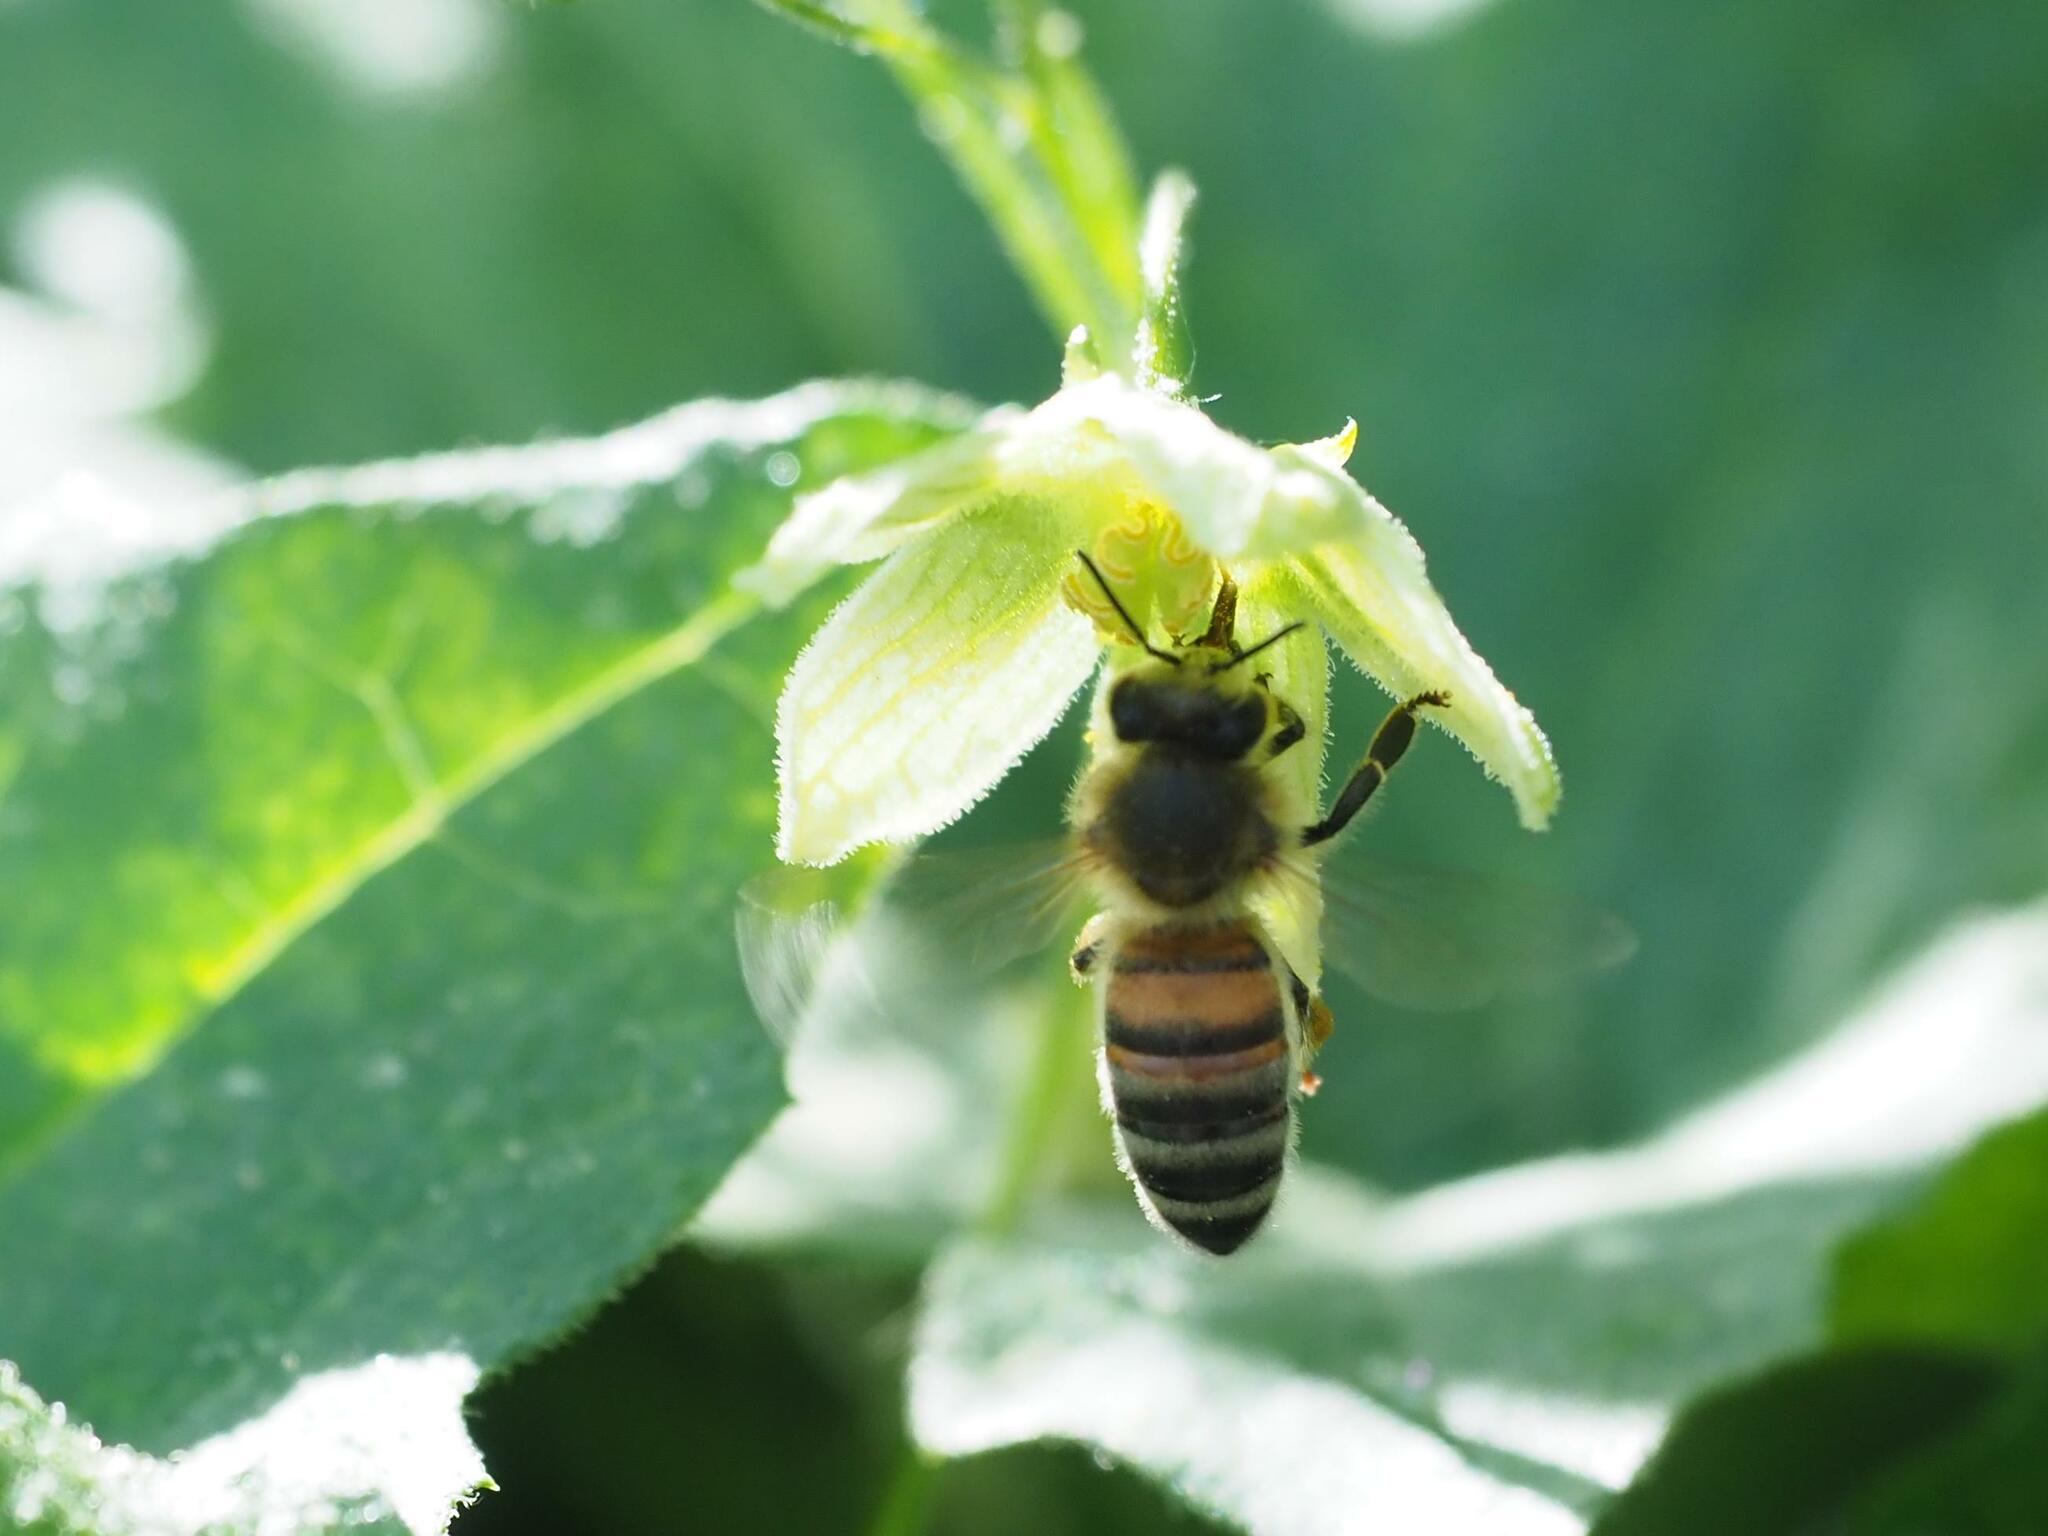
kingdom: Animalia
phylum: Arthropoda
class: Insecta
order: Hymenoptera
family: Apidae
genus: Apis
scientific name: Apis mellifera
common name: Honey bee
